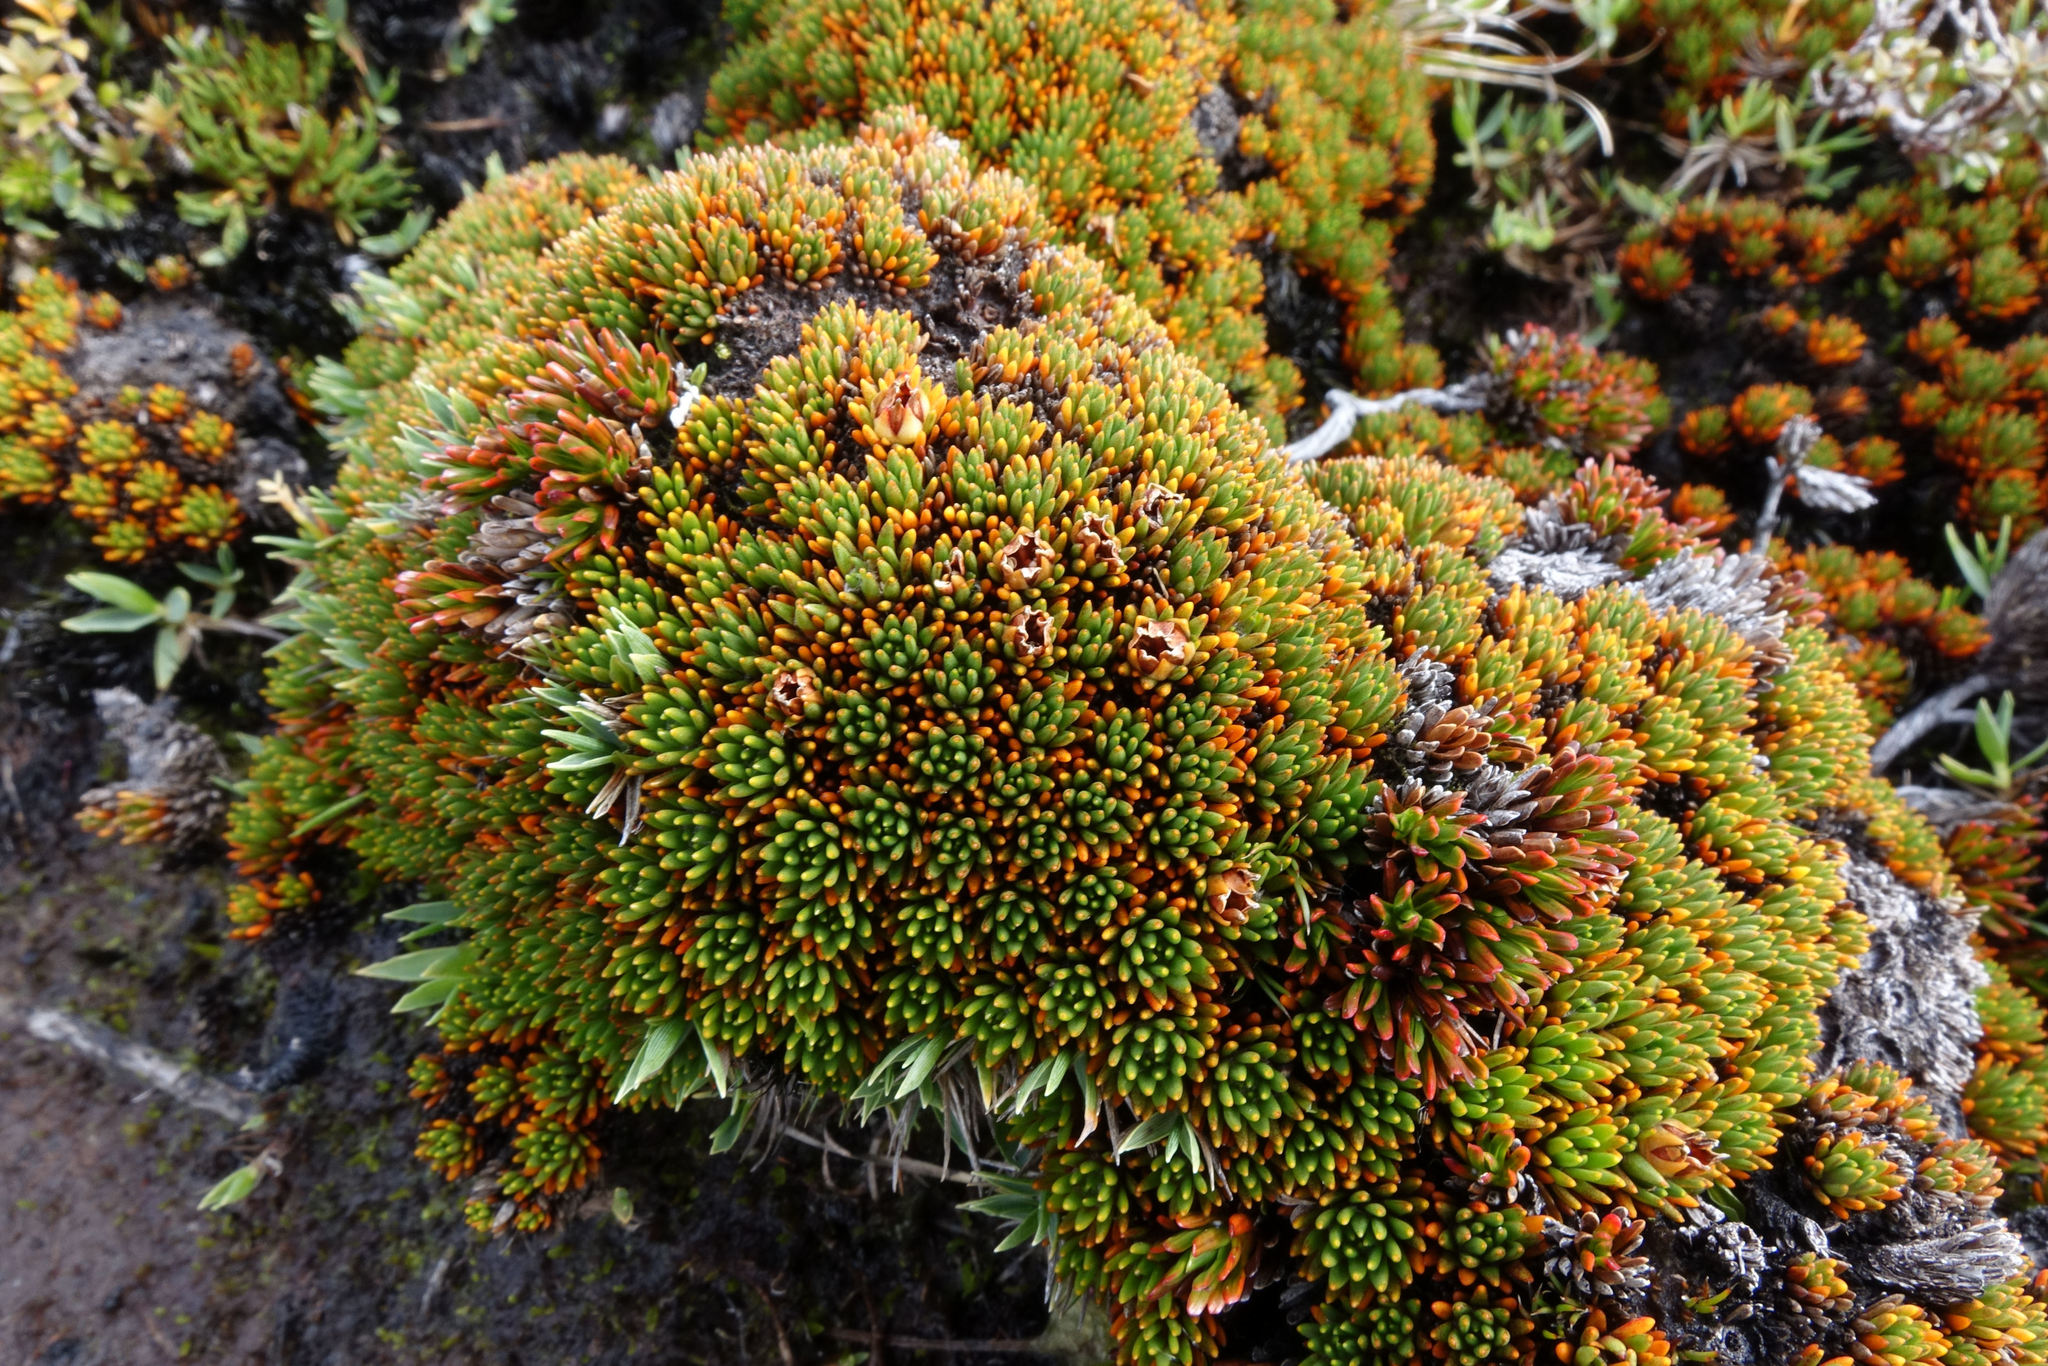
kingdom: Plantae
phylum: Tracheophyta
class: Magnoliopsida
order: Asterales
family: Stylidiaceae
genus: Donatia
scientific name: Donatia novae-zelandiae
